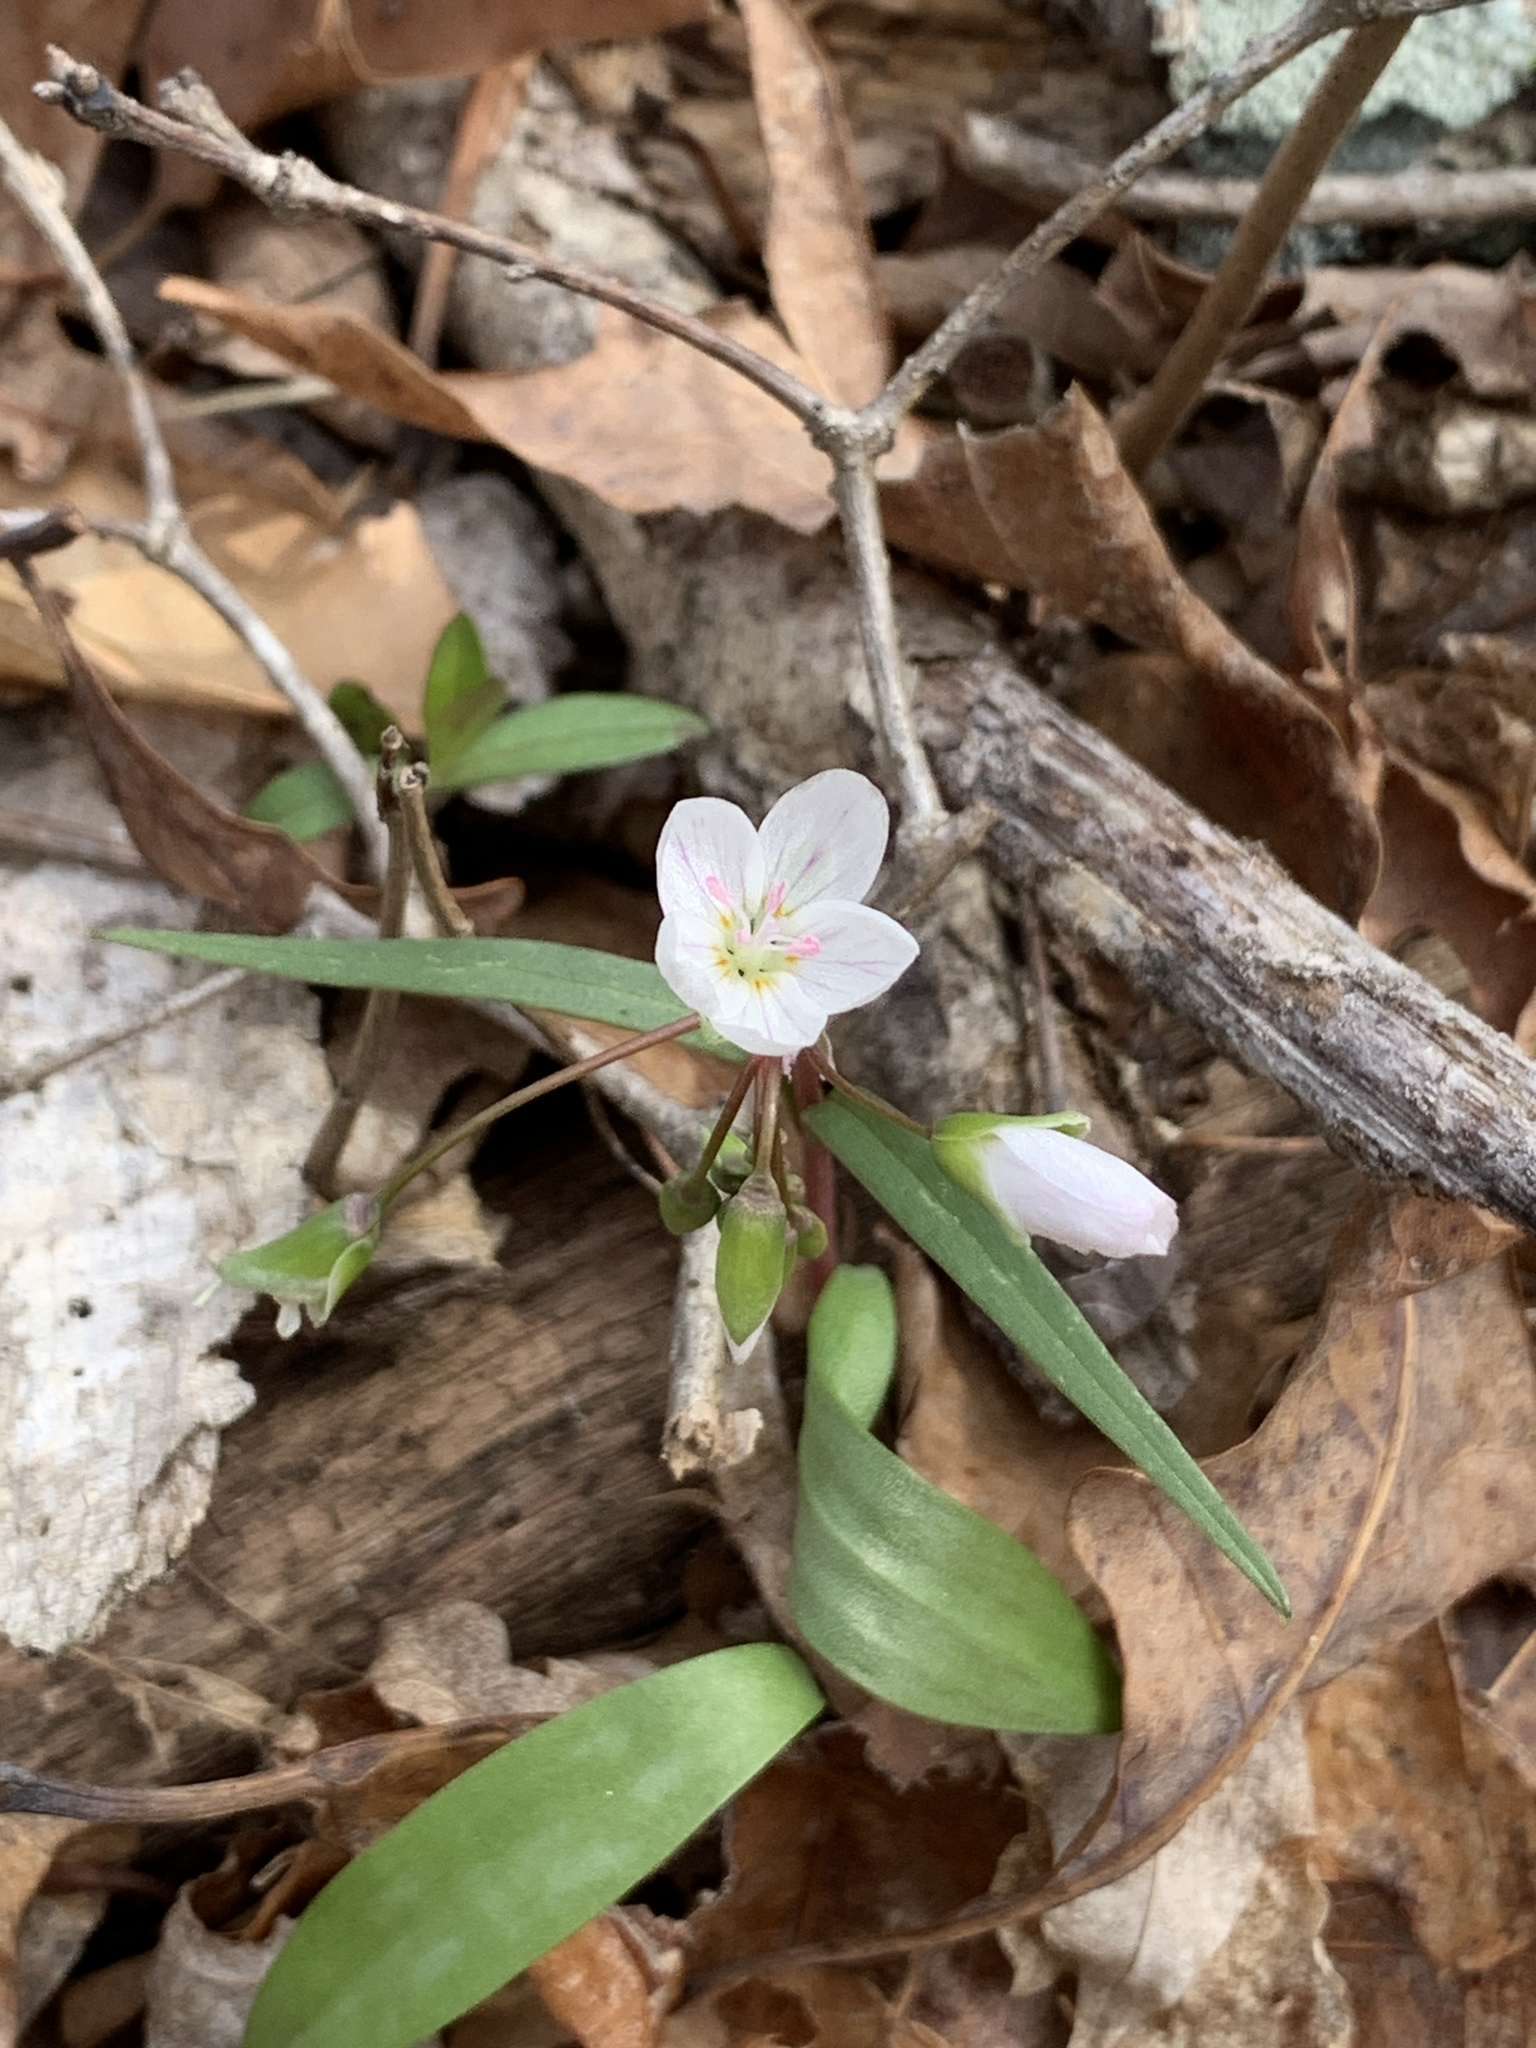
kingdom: Plantae
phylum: Tracheophyta
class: Magnoliopsida
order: Caryophyllales
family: Montiaceae
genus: Claytonia
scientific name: Claytonia virginica
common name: Virginia springbeauty
